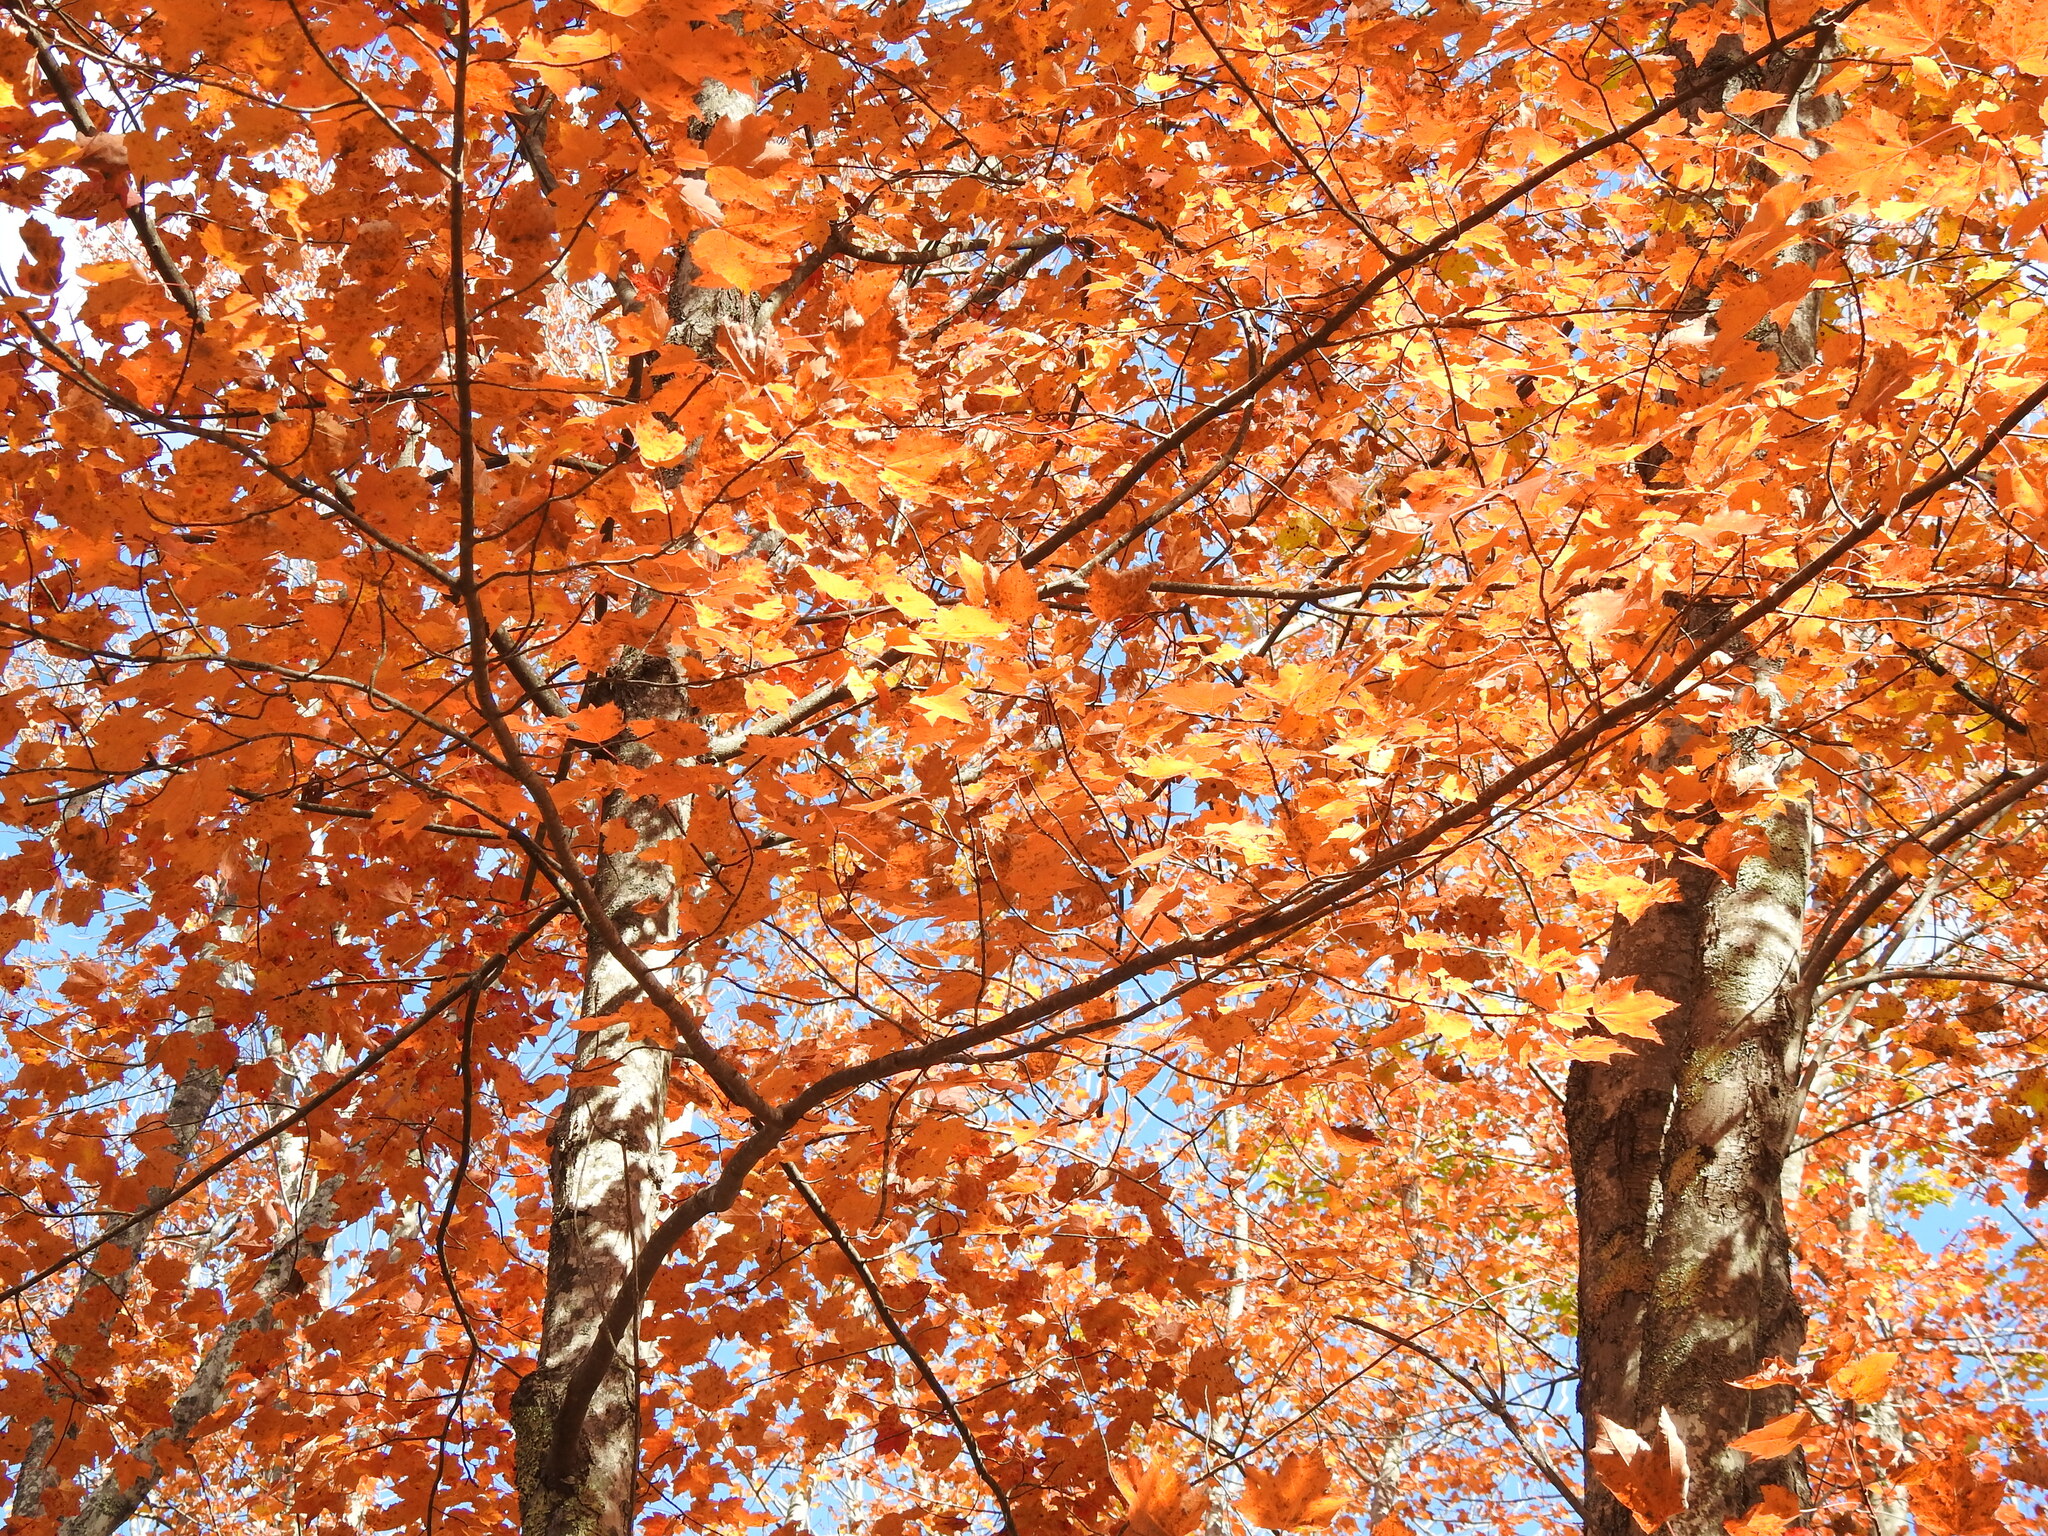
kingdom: Plantae
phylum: Tracheophyta
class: Magnoliopsida
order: Sapindales
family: Sapindaceae
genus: Acer
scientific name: Acer rubrum
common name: Red maple
